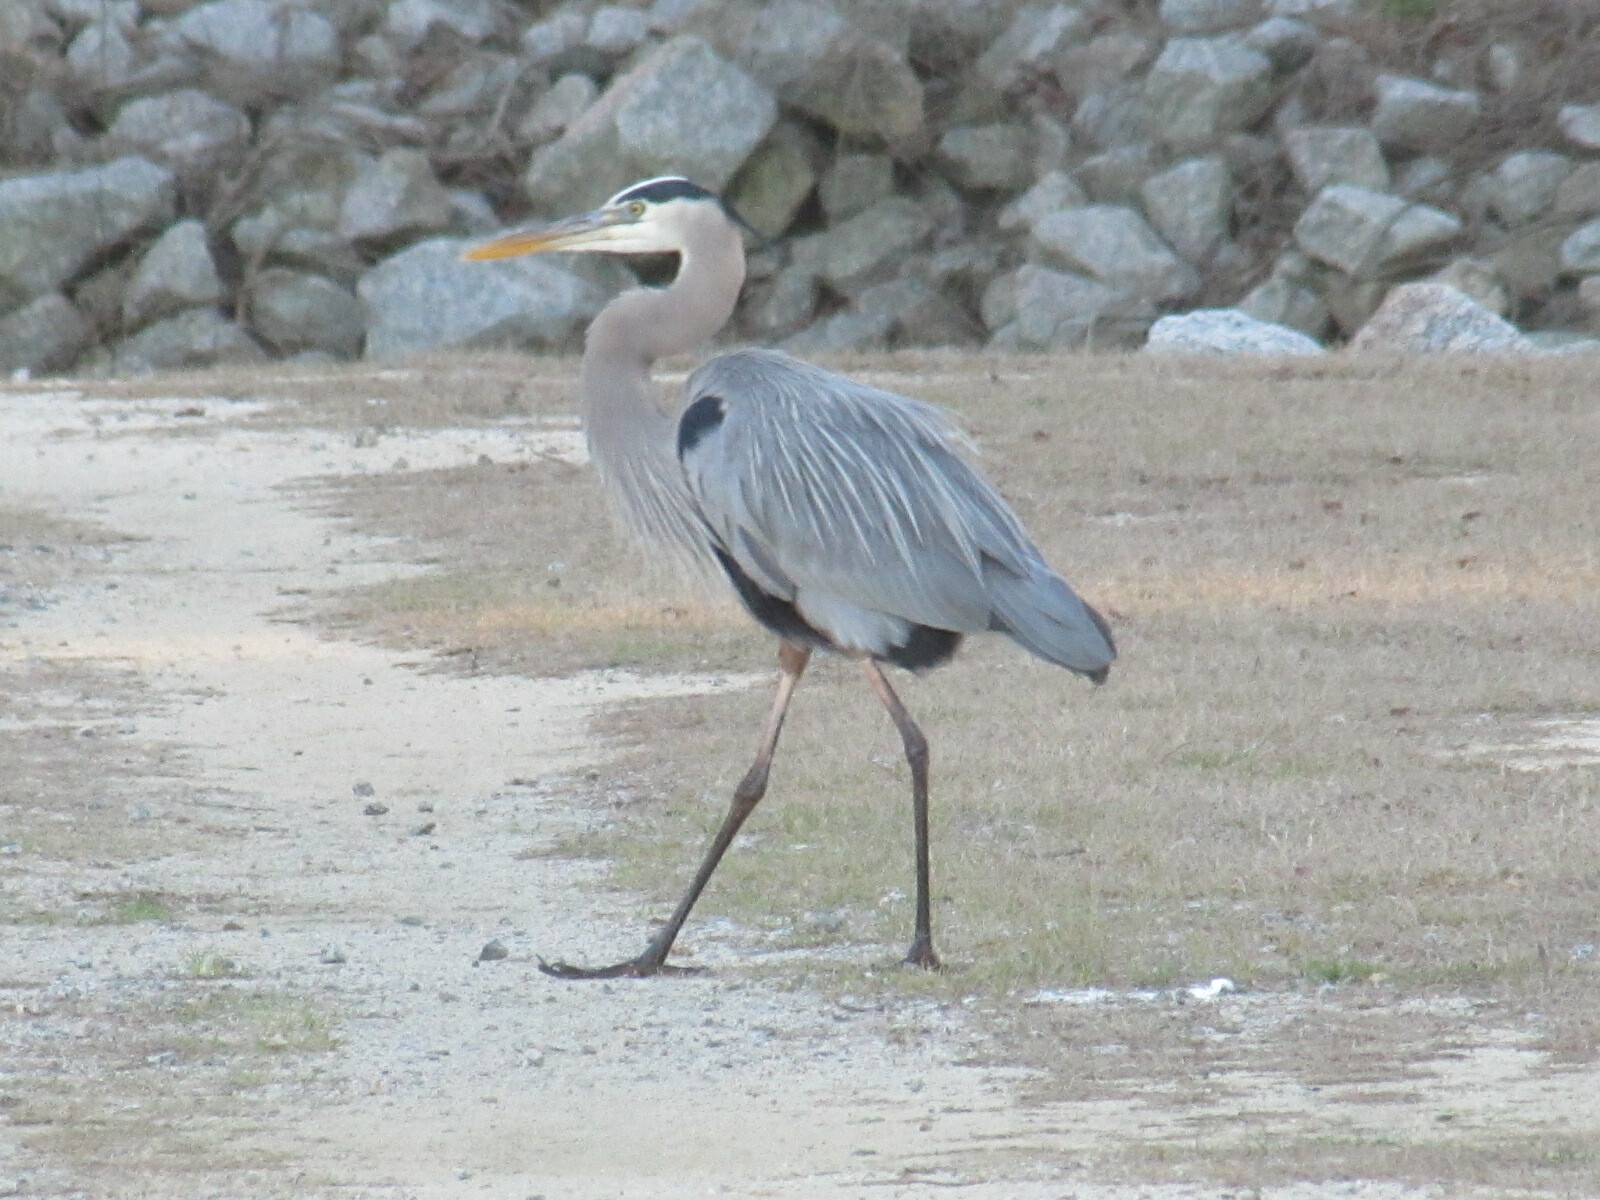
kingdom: Animalia
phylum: Chordata
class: Aves
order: Pelecaniformes
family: Ardeidae
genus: Ardea
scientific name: Ardea herodias
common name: Great blue heron
